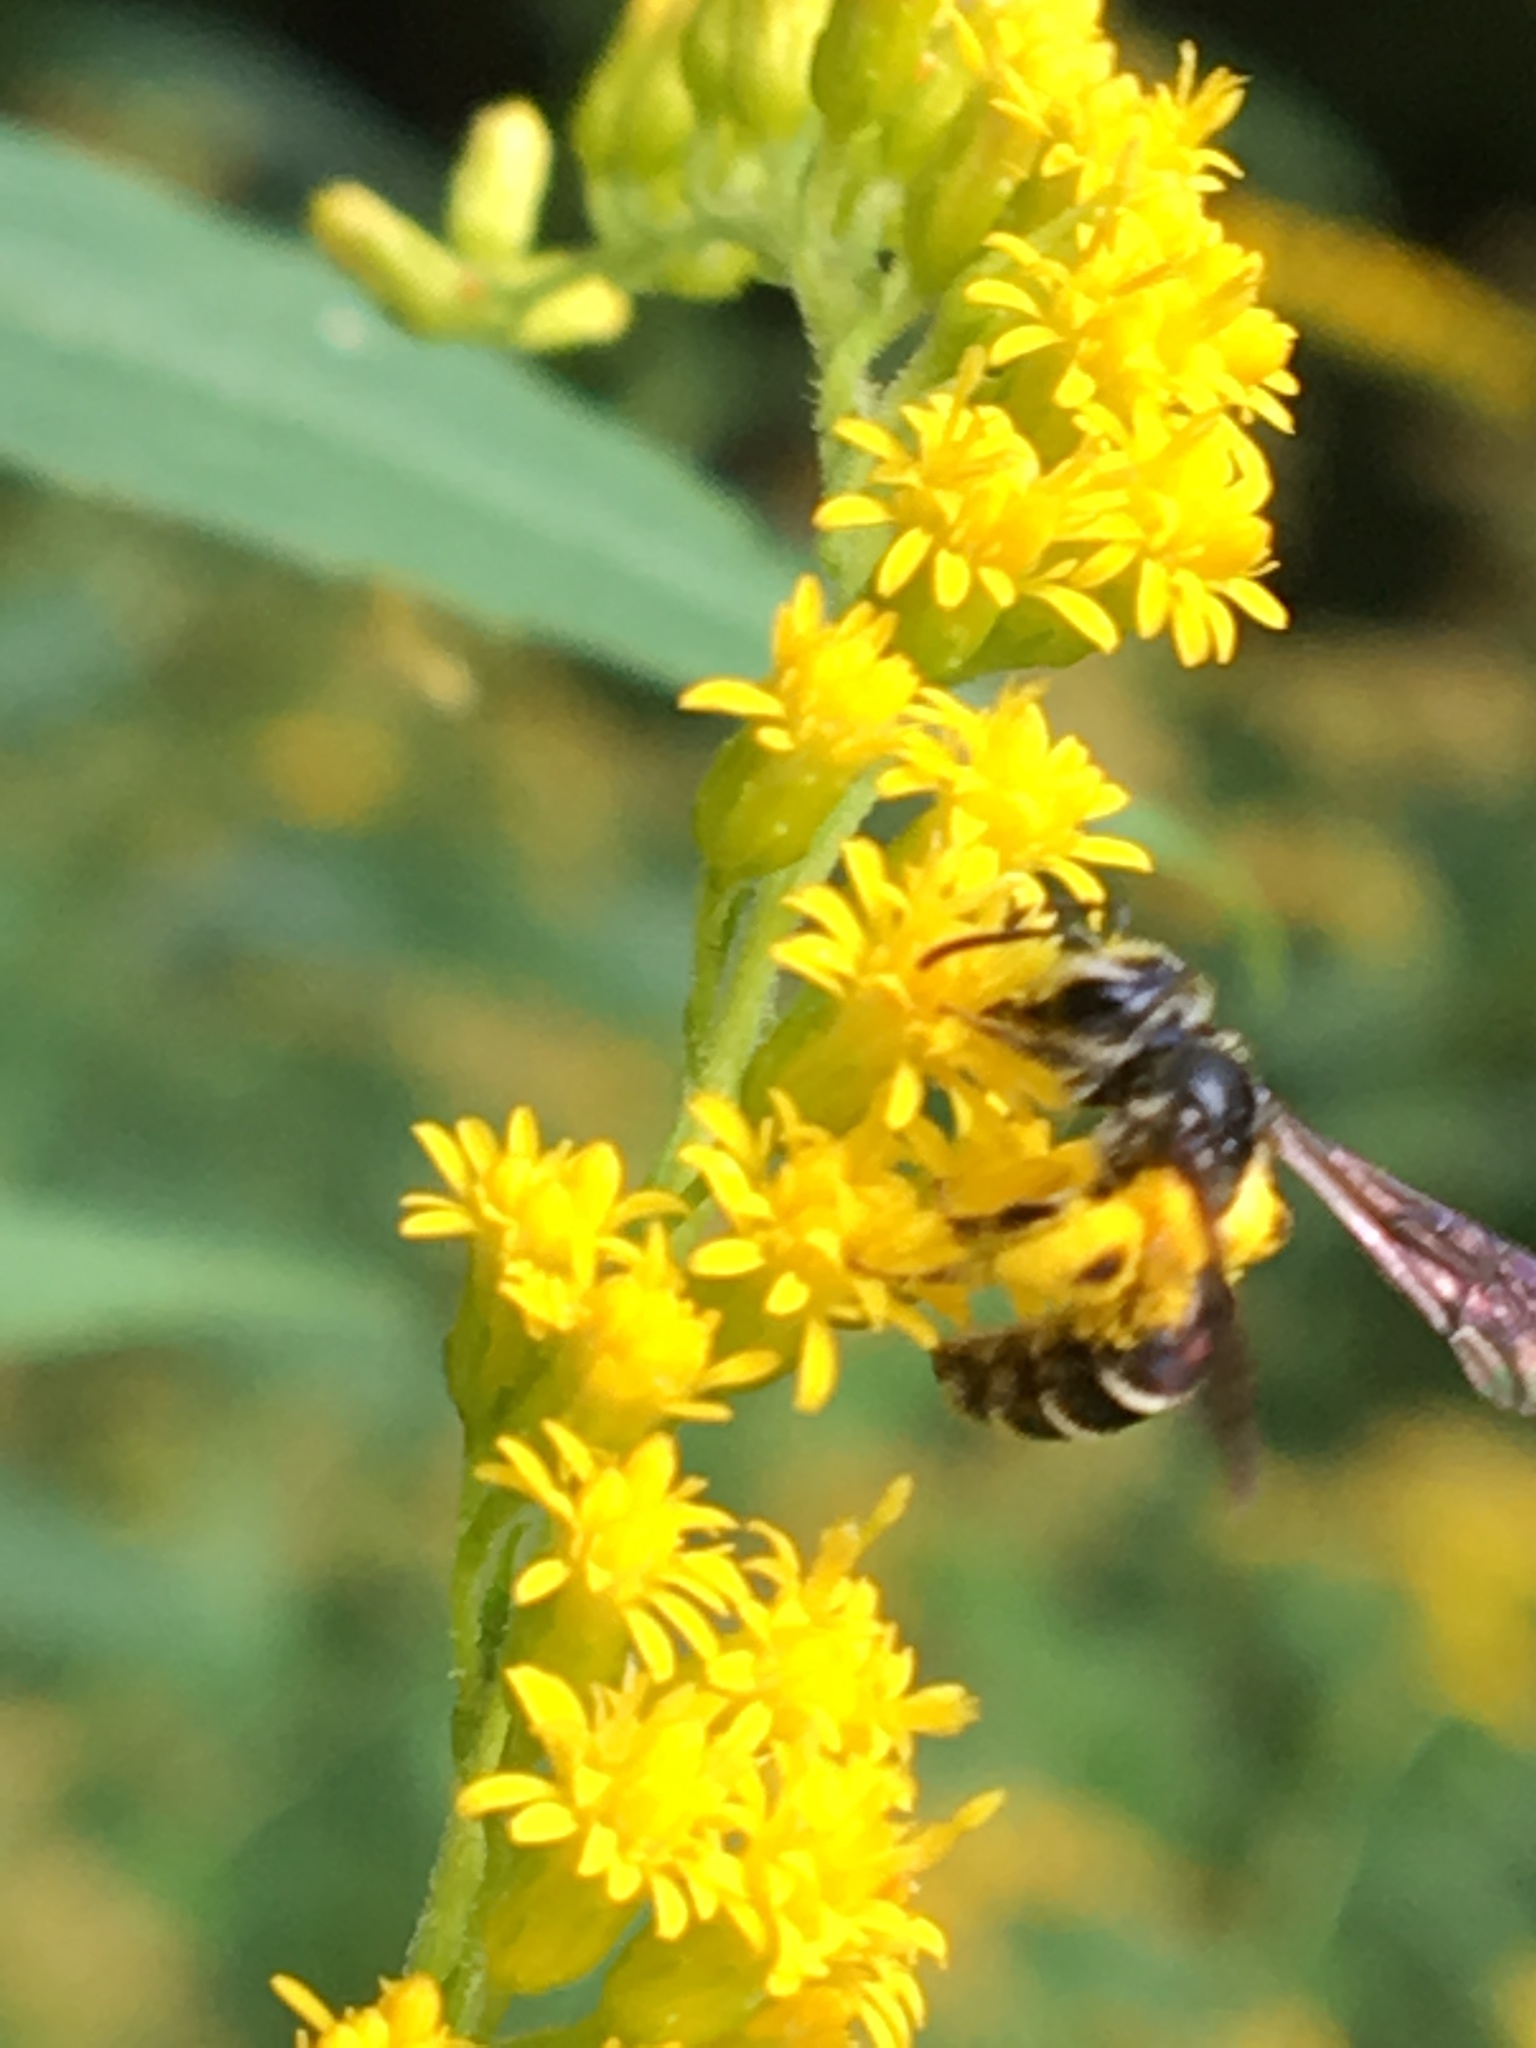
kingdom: Animalia
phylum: Arthropoda
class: Insecta
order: Hymenoptera
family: Andrenidae
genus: Andrena
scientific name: Andrena nubecula
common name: Cloudy-winged mining bee
